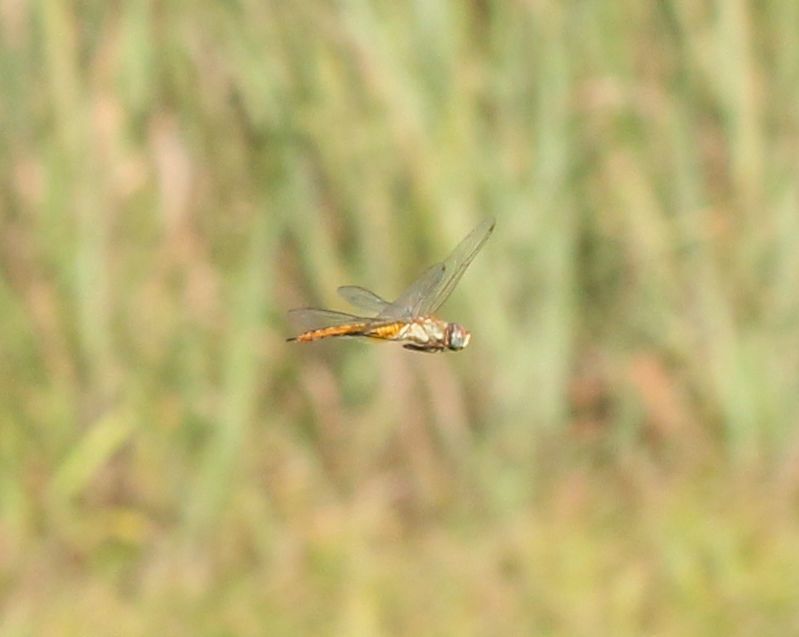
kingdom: Animalia
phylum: Arthropoda
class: Insecta
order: Odonata
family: Libellulidae
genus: Pantala
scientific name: Pantala flavescens
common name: Wandering glider
